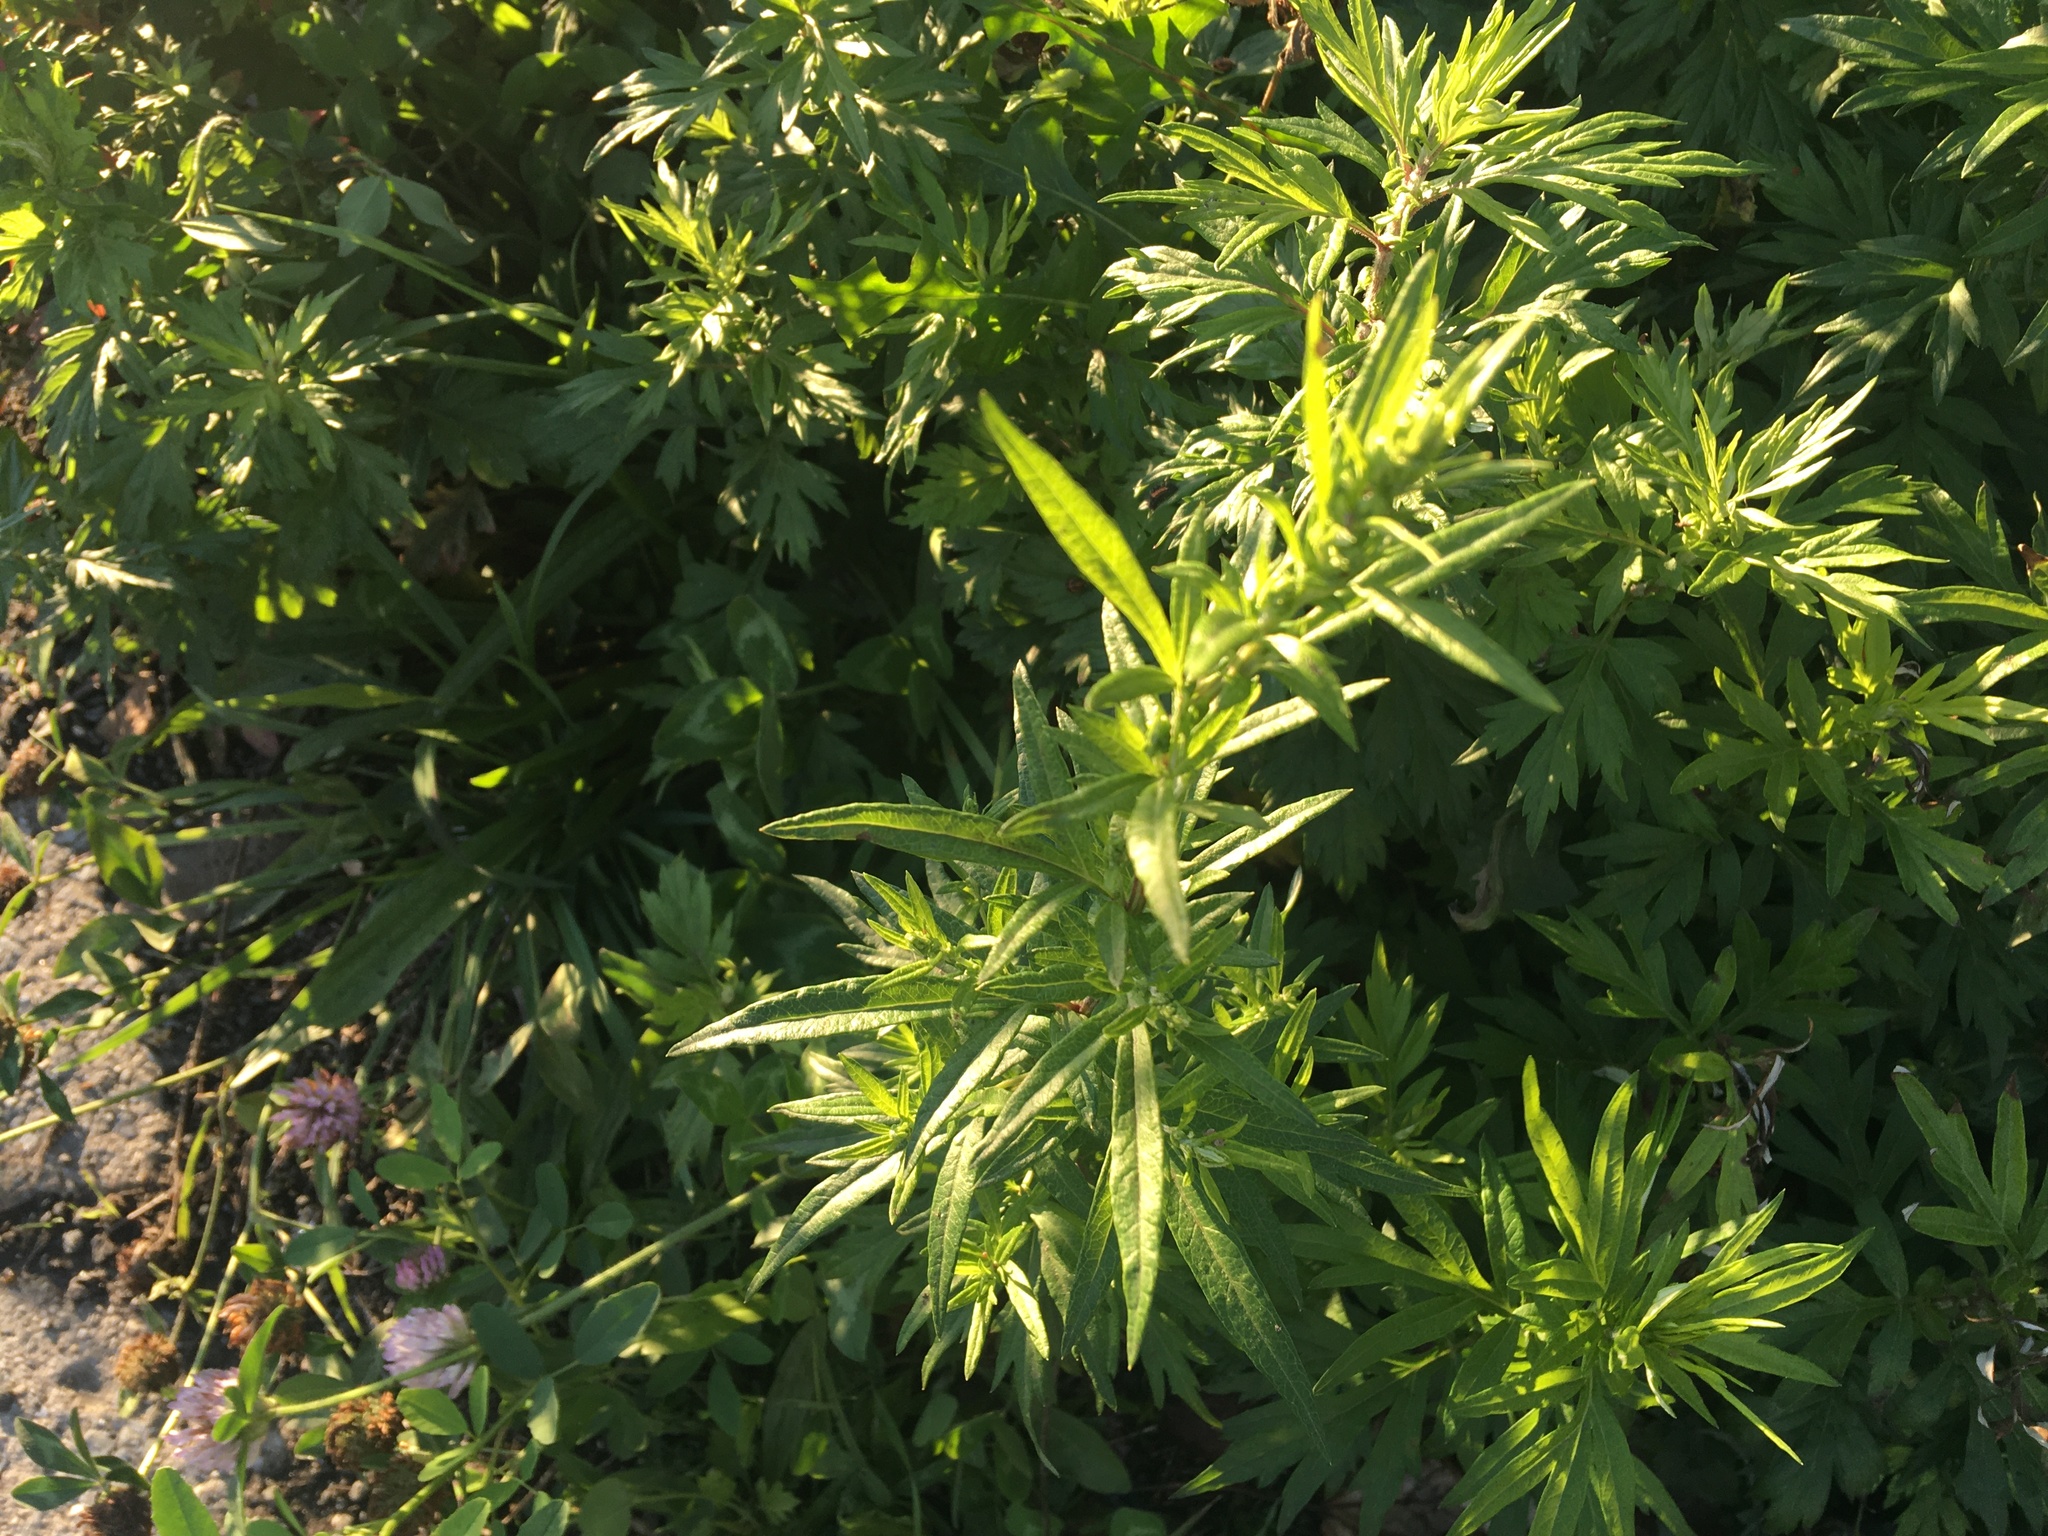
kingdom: Plantae
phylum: Tracheophyta
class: Magnoliopsida
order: Asterales
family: Asteraceae
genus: Artemisia
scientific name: Artemisia vulgaris
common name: Mugwort
